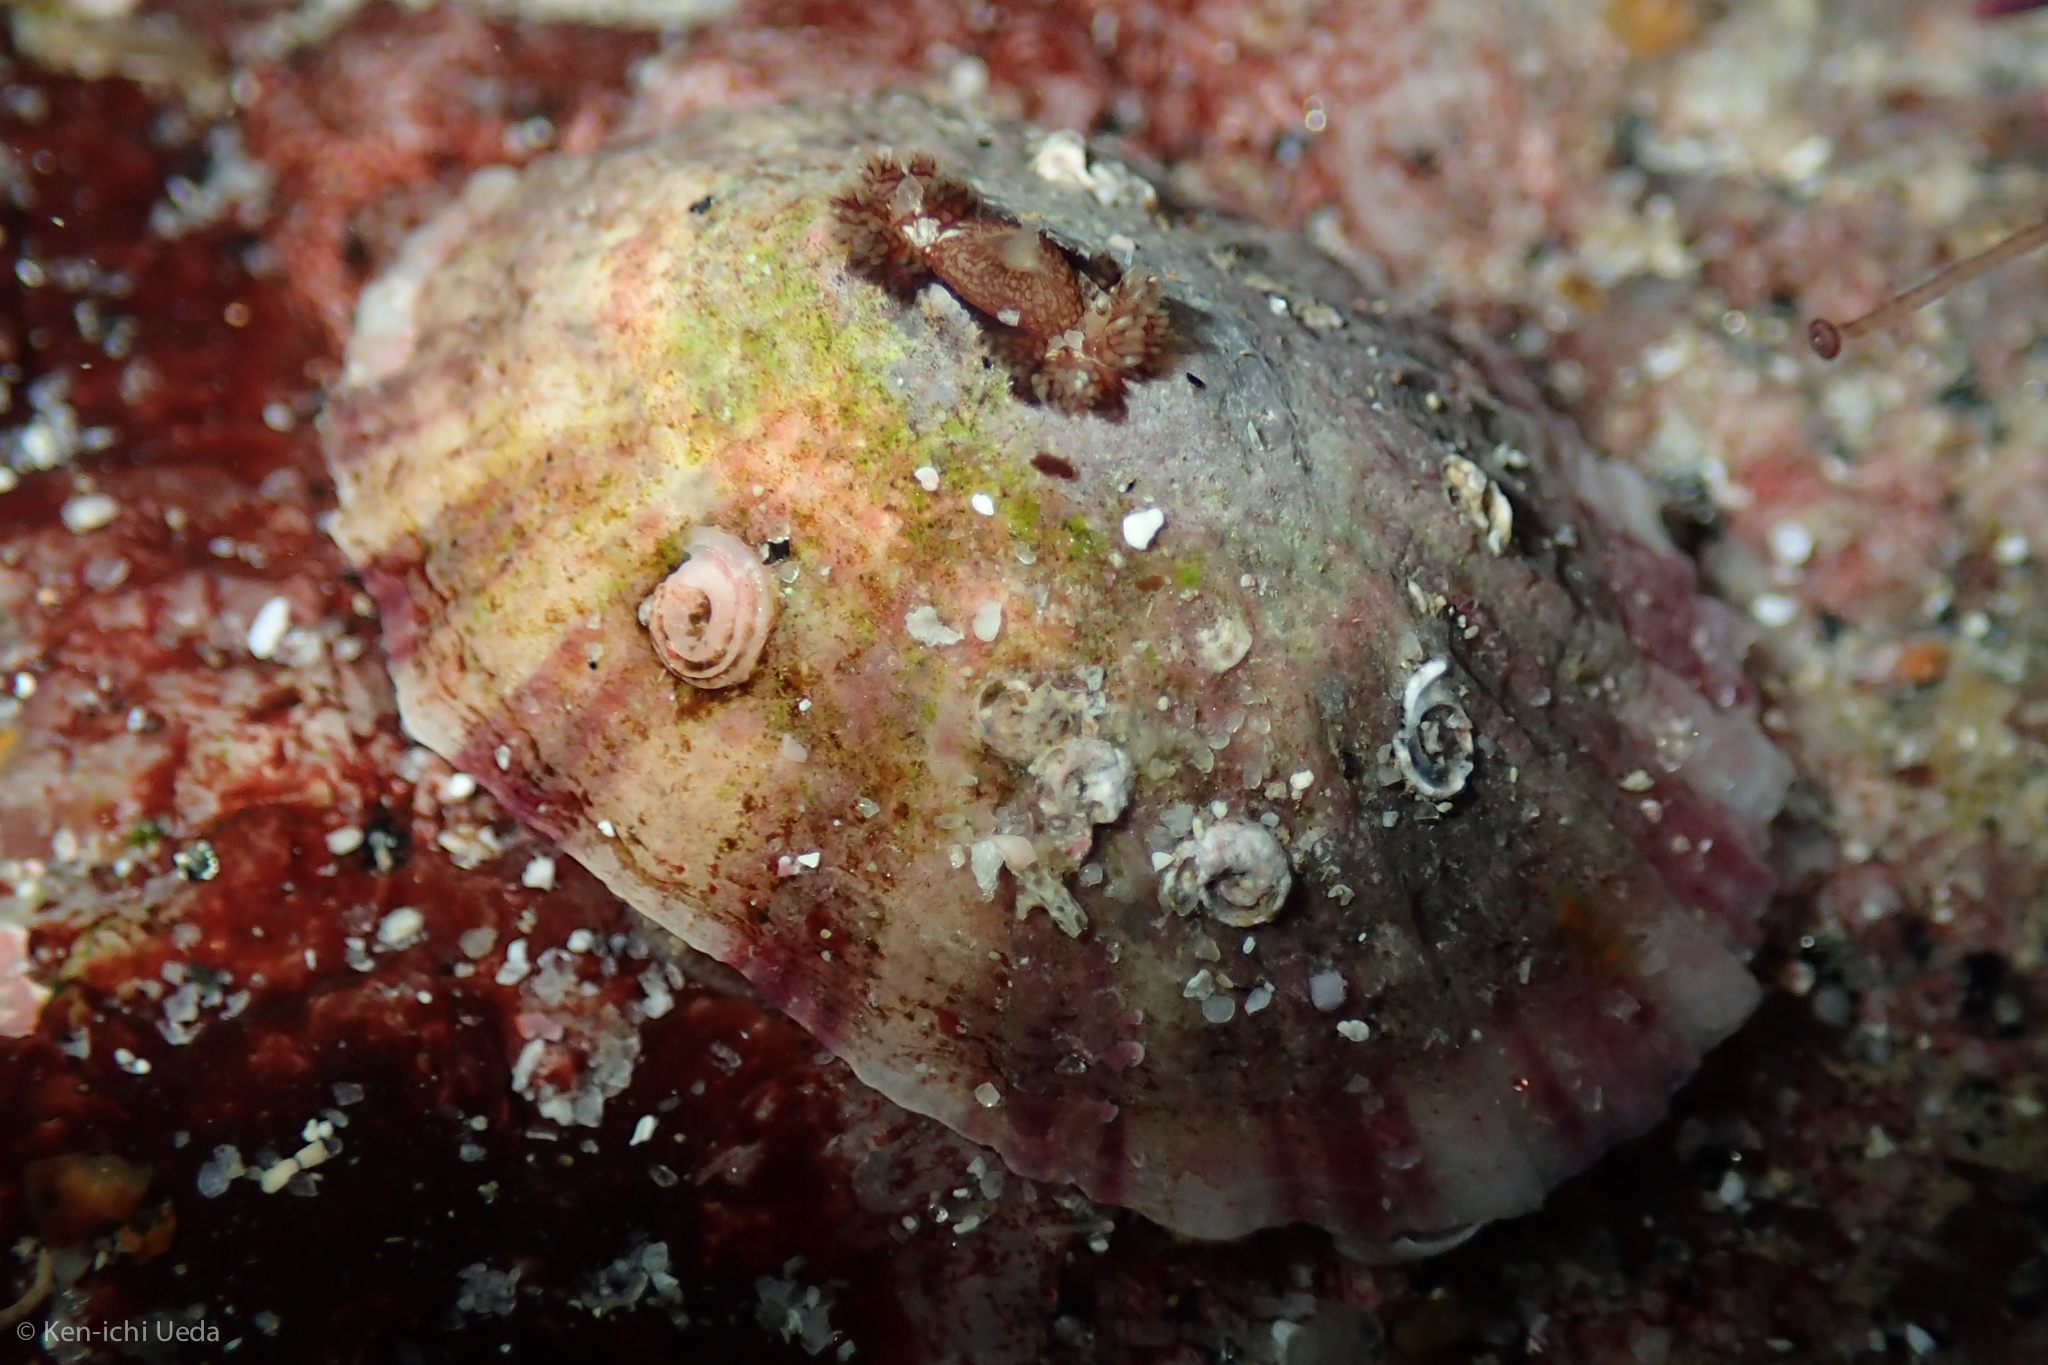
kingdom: Animalia
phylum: Mollusca
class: Gastropoda
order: Lepetellida
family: Fissurellidae
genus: Fissurella
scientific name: Fissurella volcano
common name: Volcano keyhole limpet
